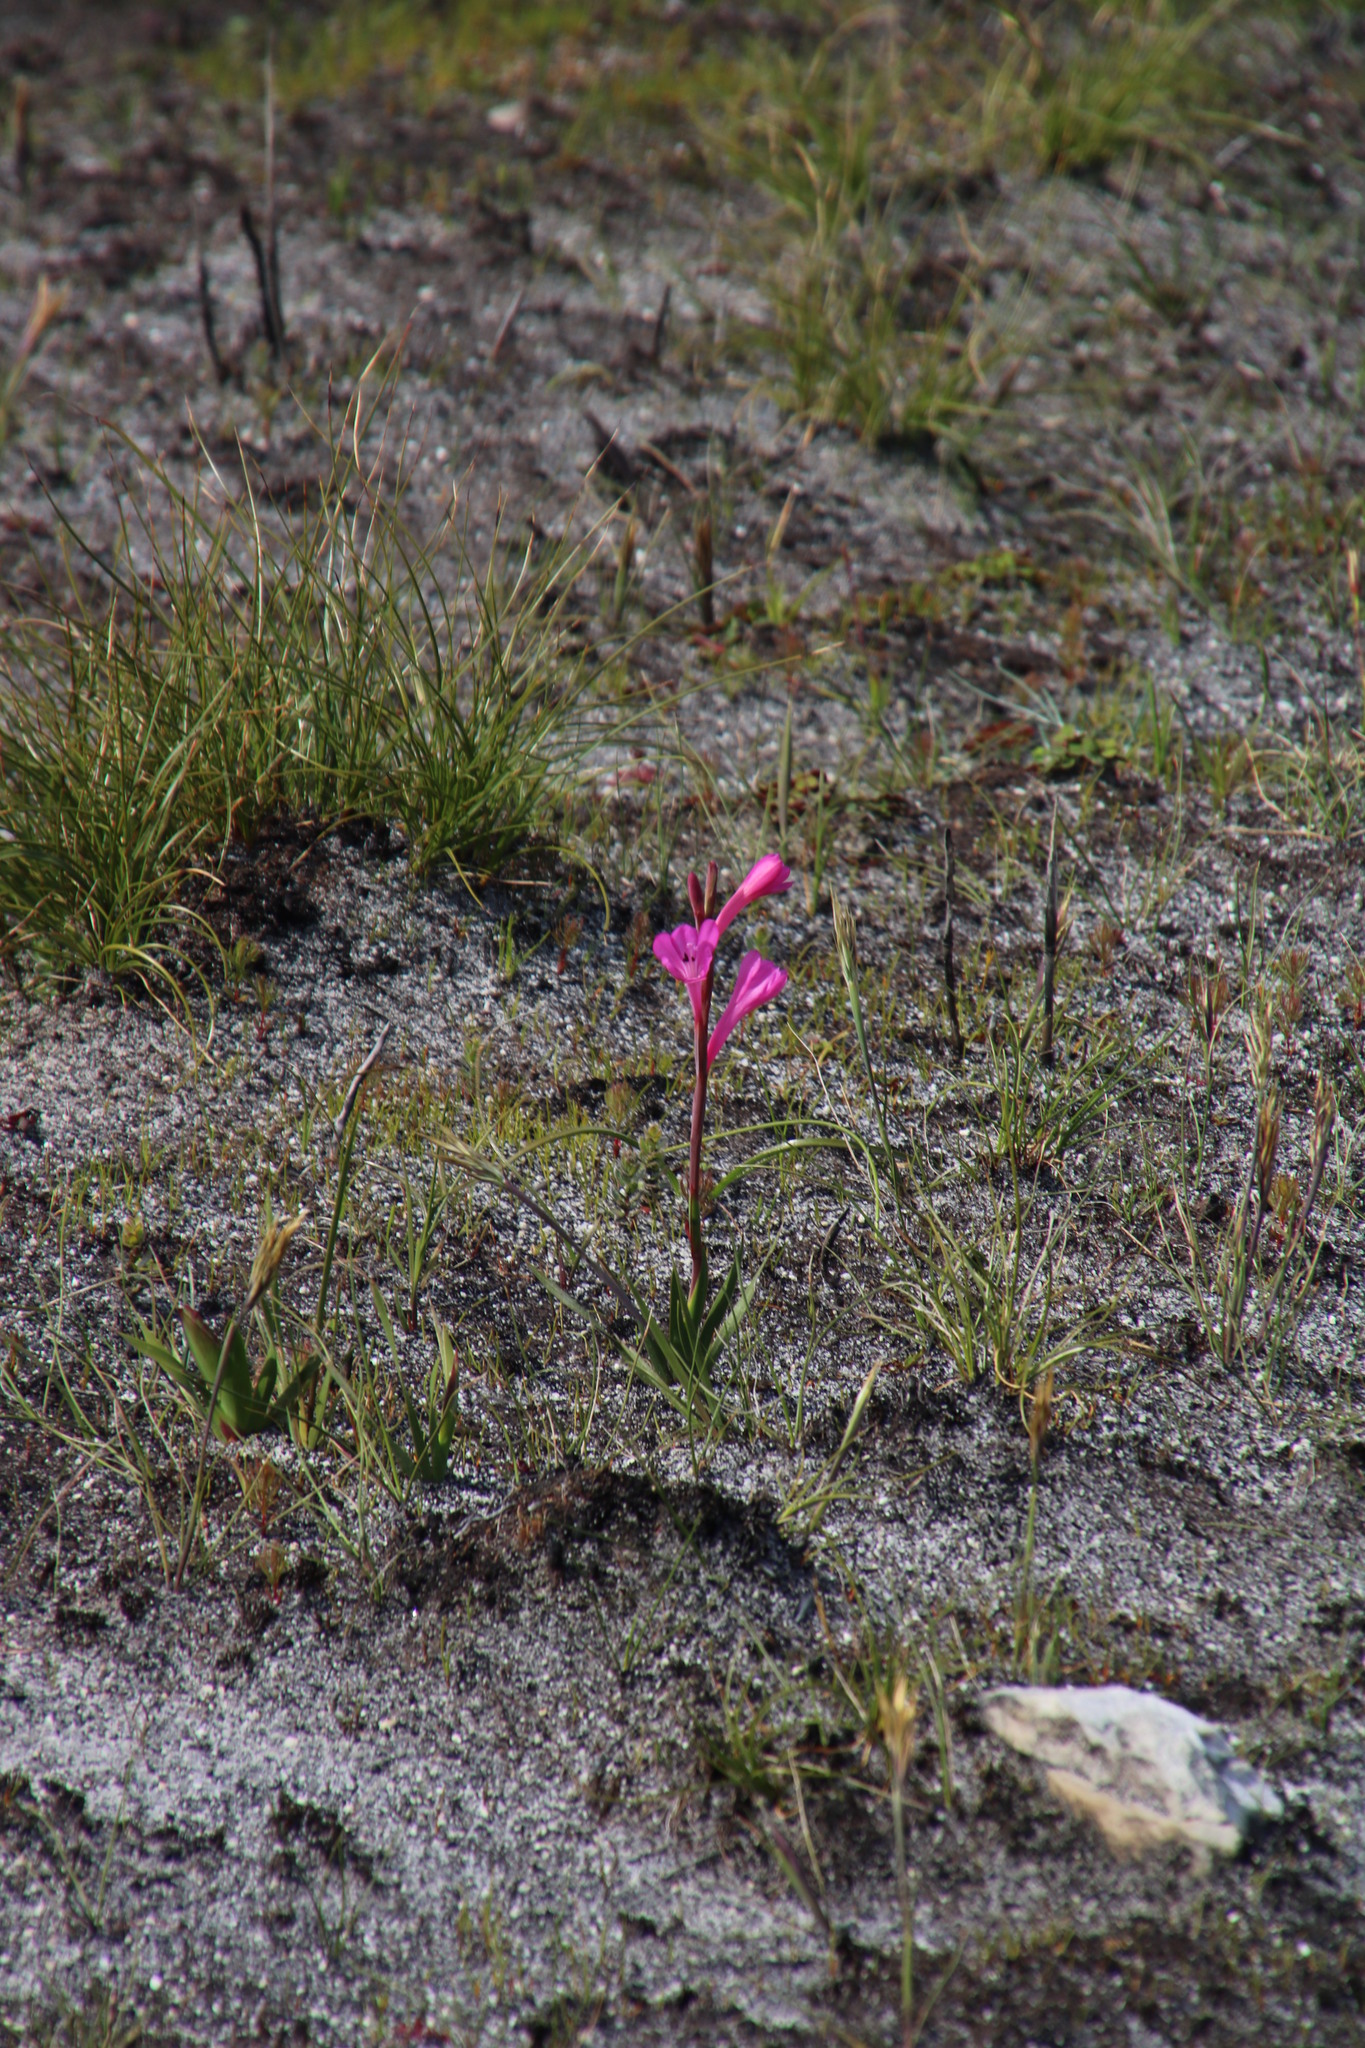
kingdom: Plantae
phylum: Tracheophyta
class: Liliopsida
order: Asparagales
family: Iridaceae
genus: Watsonia
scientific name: Watsonia coccinea
